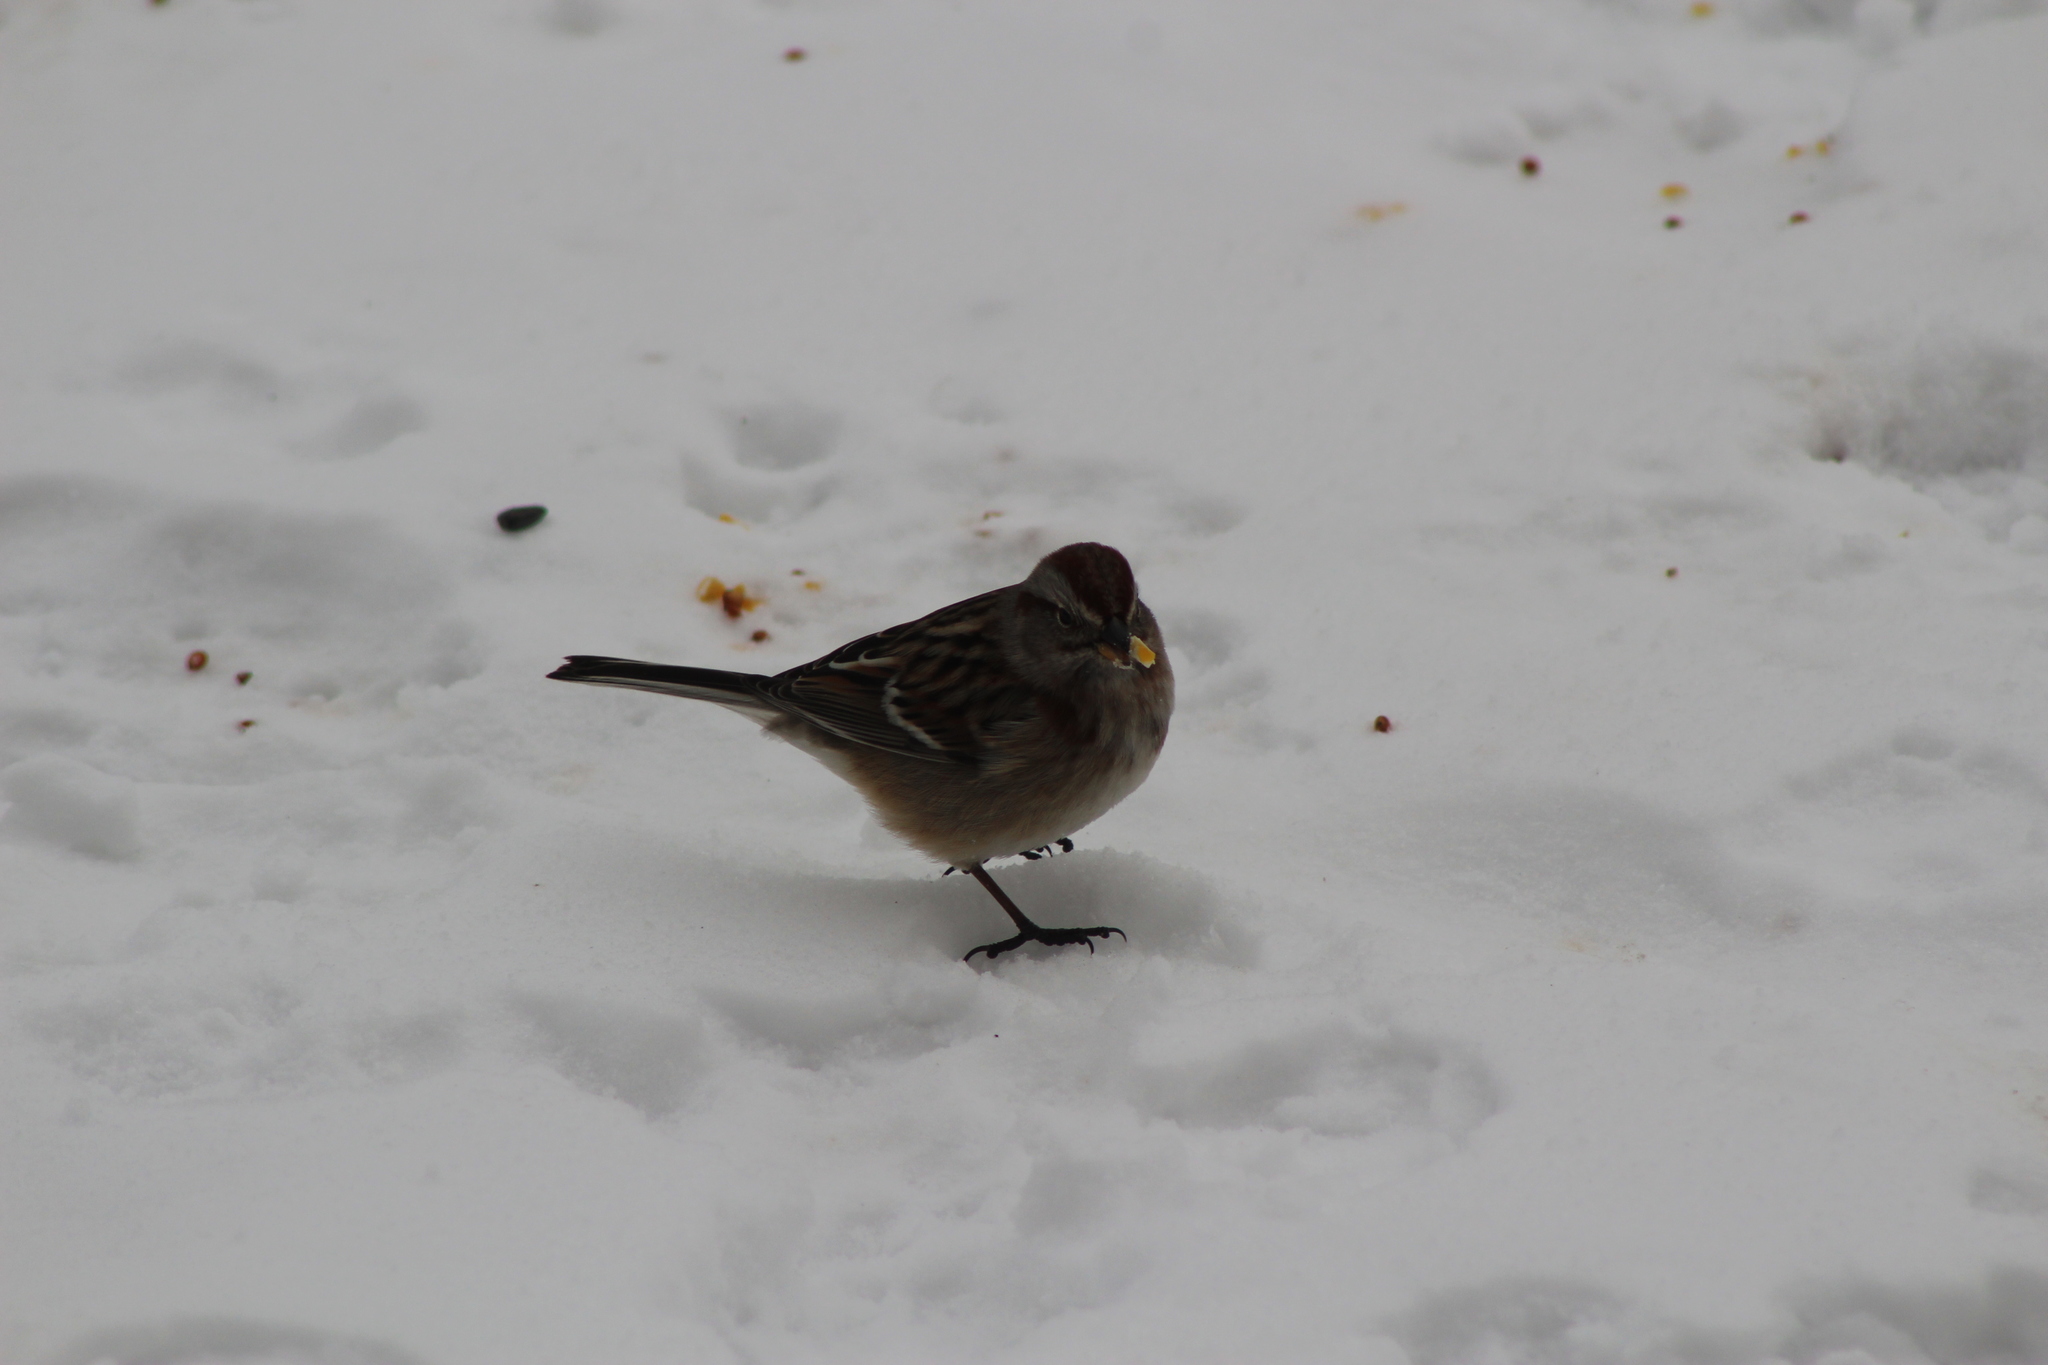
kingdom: Animalia
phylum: Chordata
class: Aves
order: Passeriformes
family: Passerellidae
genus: Spizelloides
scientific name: Spizelloides arborea
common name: American tree sparrow
